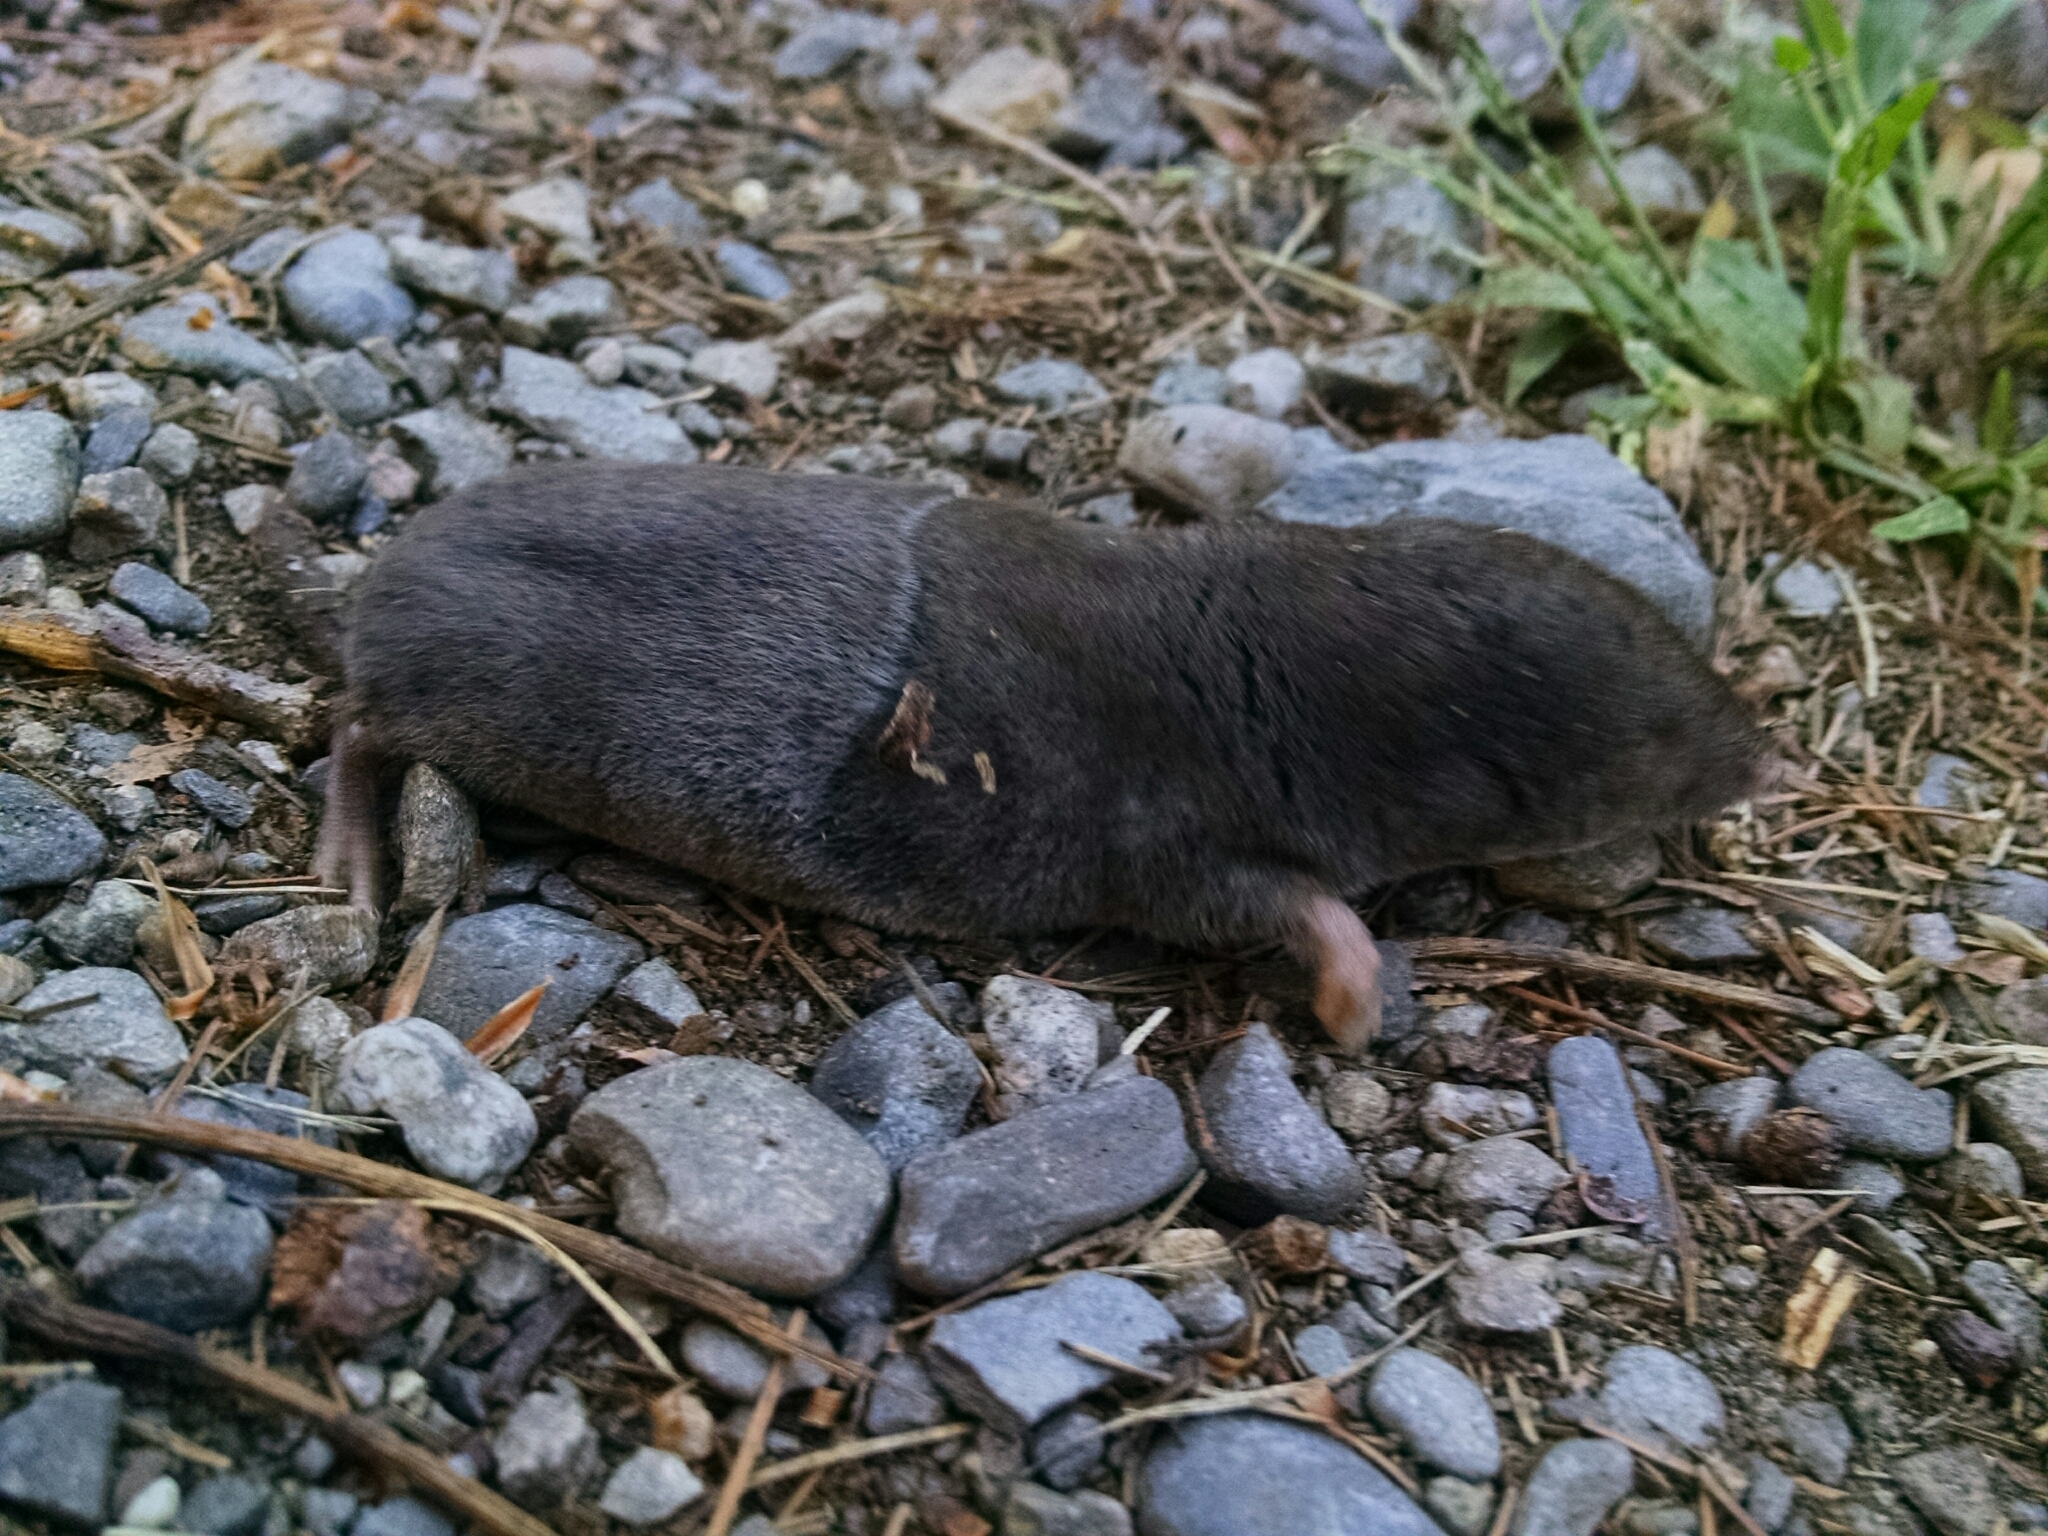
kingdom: Animalia
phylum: Chordata
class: Mammalia
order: Soricomorpha
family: Soricidae
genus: Blarina
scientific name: Blarina brevicauda
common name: Northern short-tailed shrew
